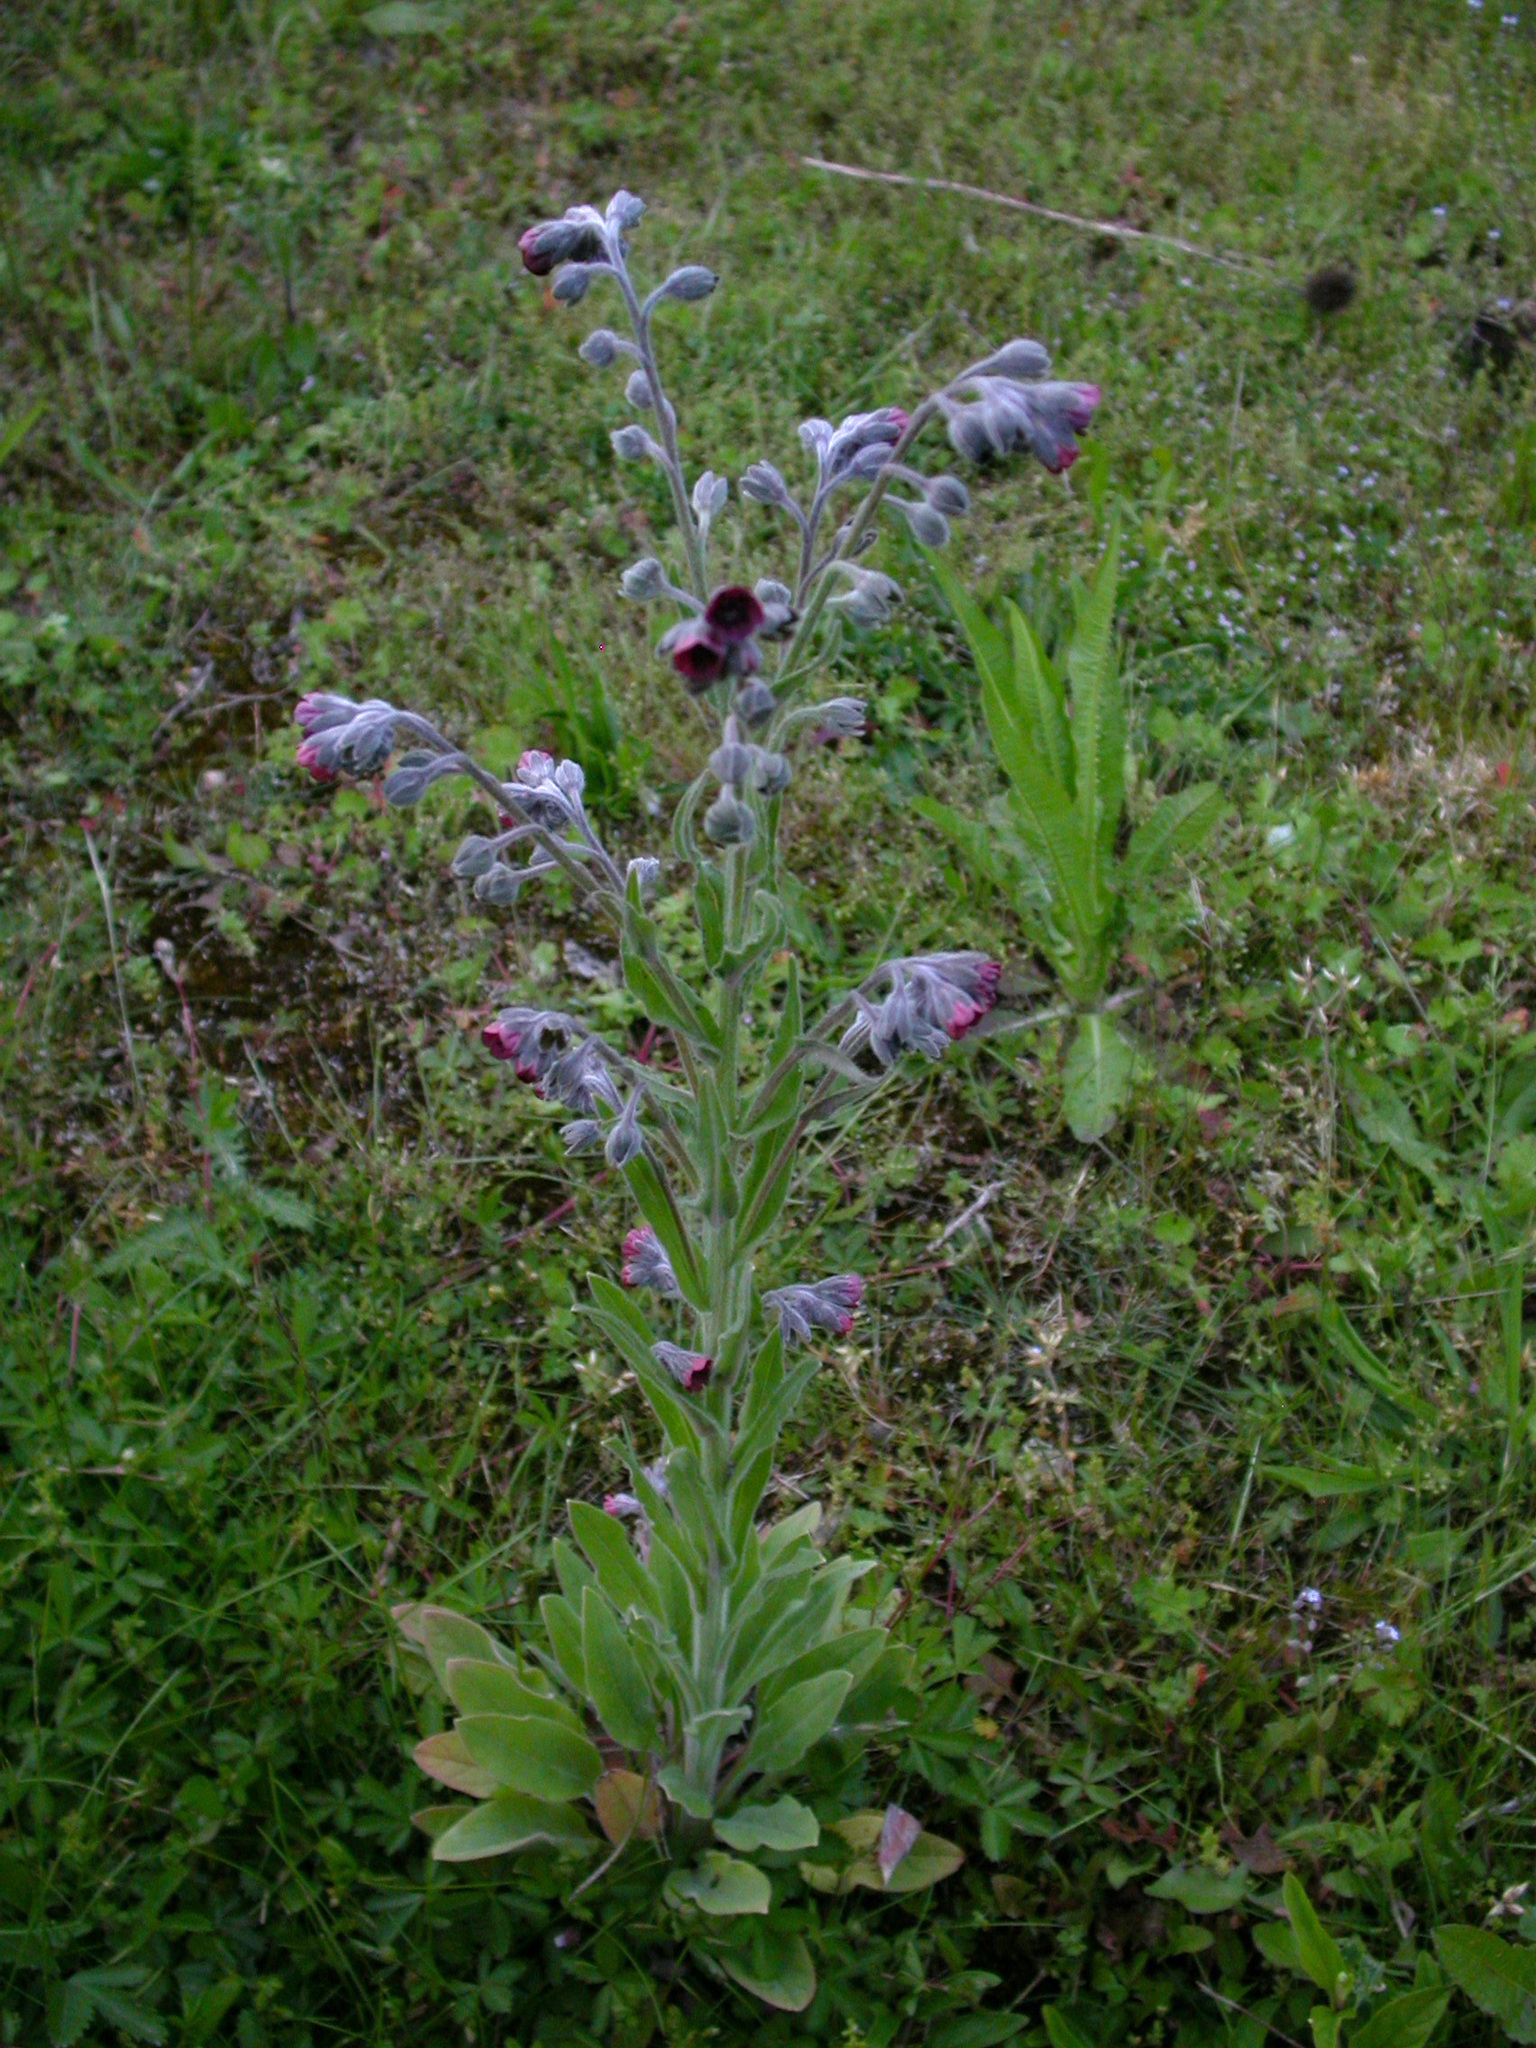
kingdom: Plantae
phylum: Tracheophyta
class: Magnoliopsida
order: Boraginales
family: Boraginaceae
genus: Cynoglossum
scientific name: Cynoglossum officinale
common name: Hound's-tongue
